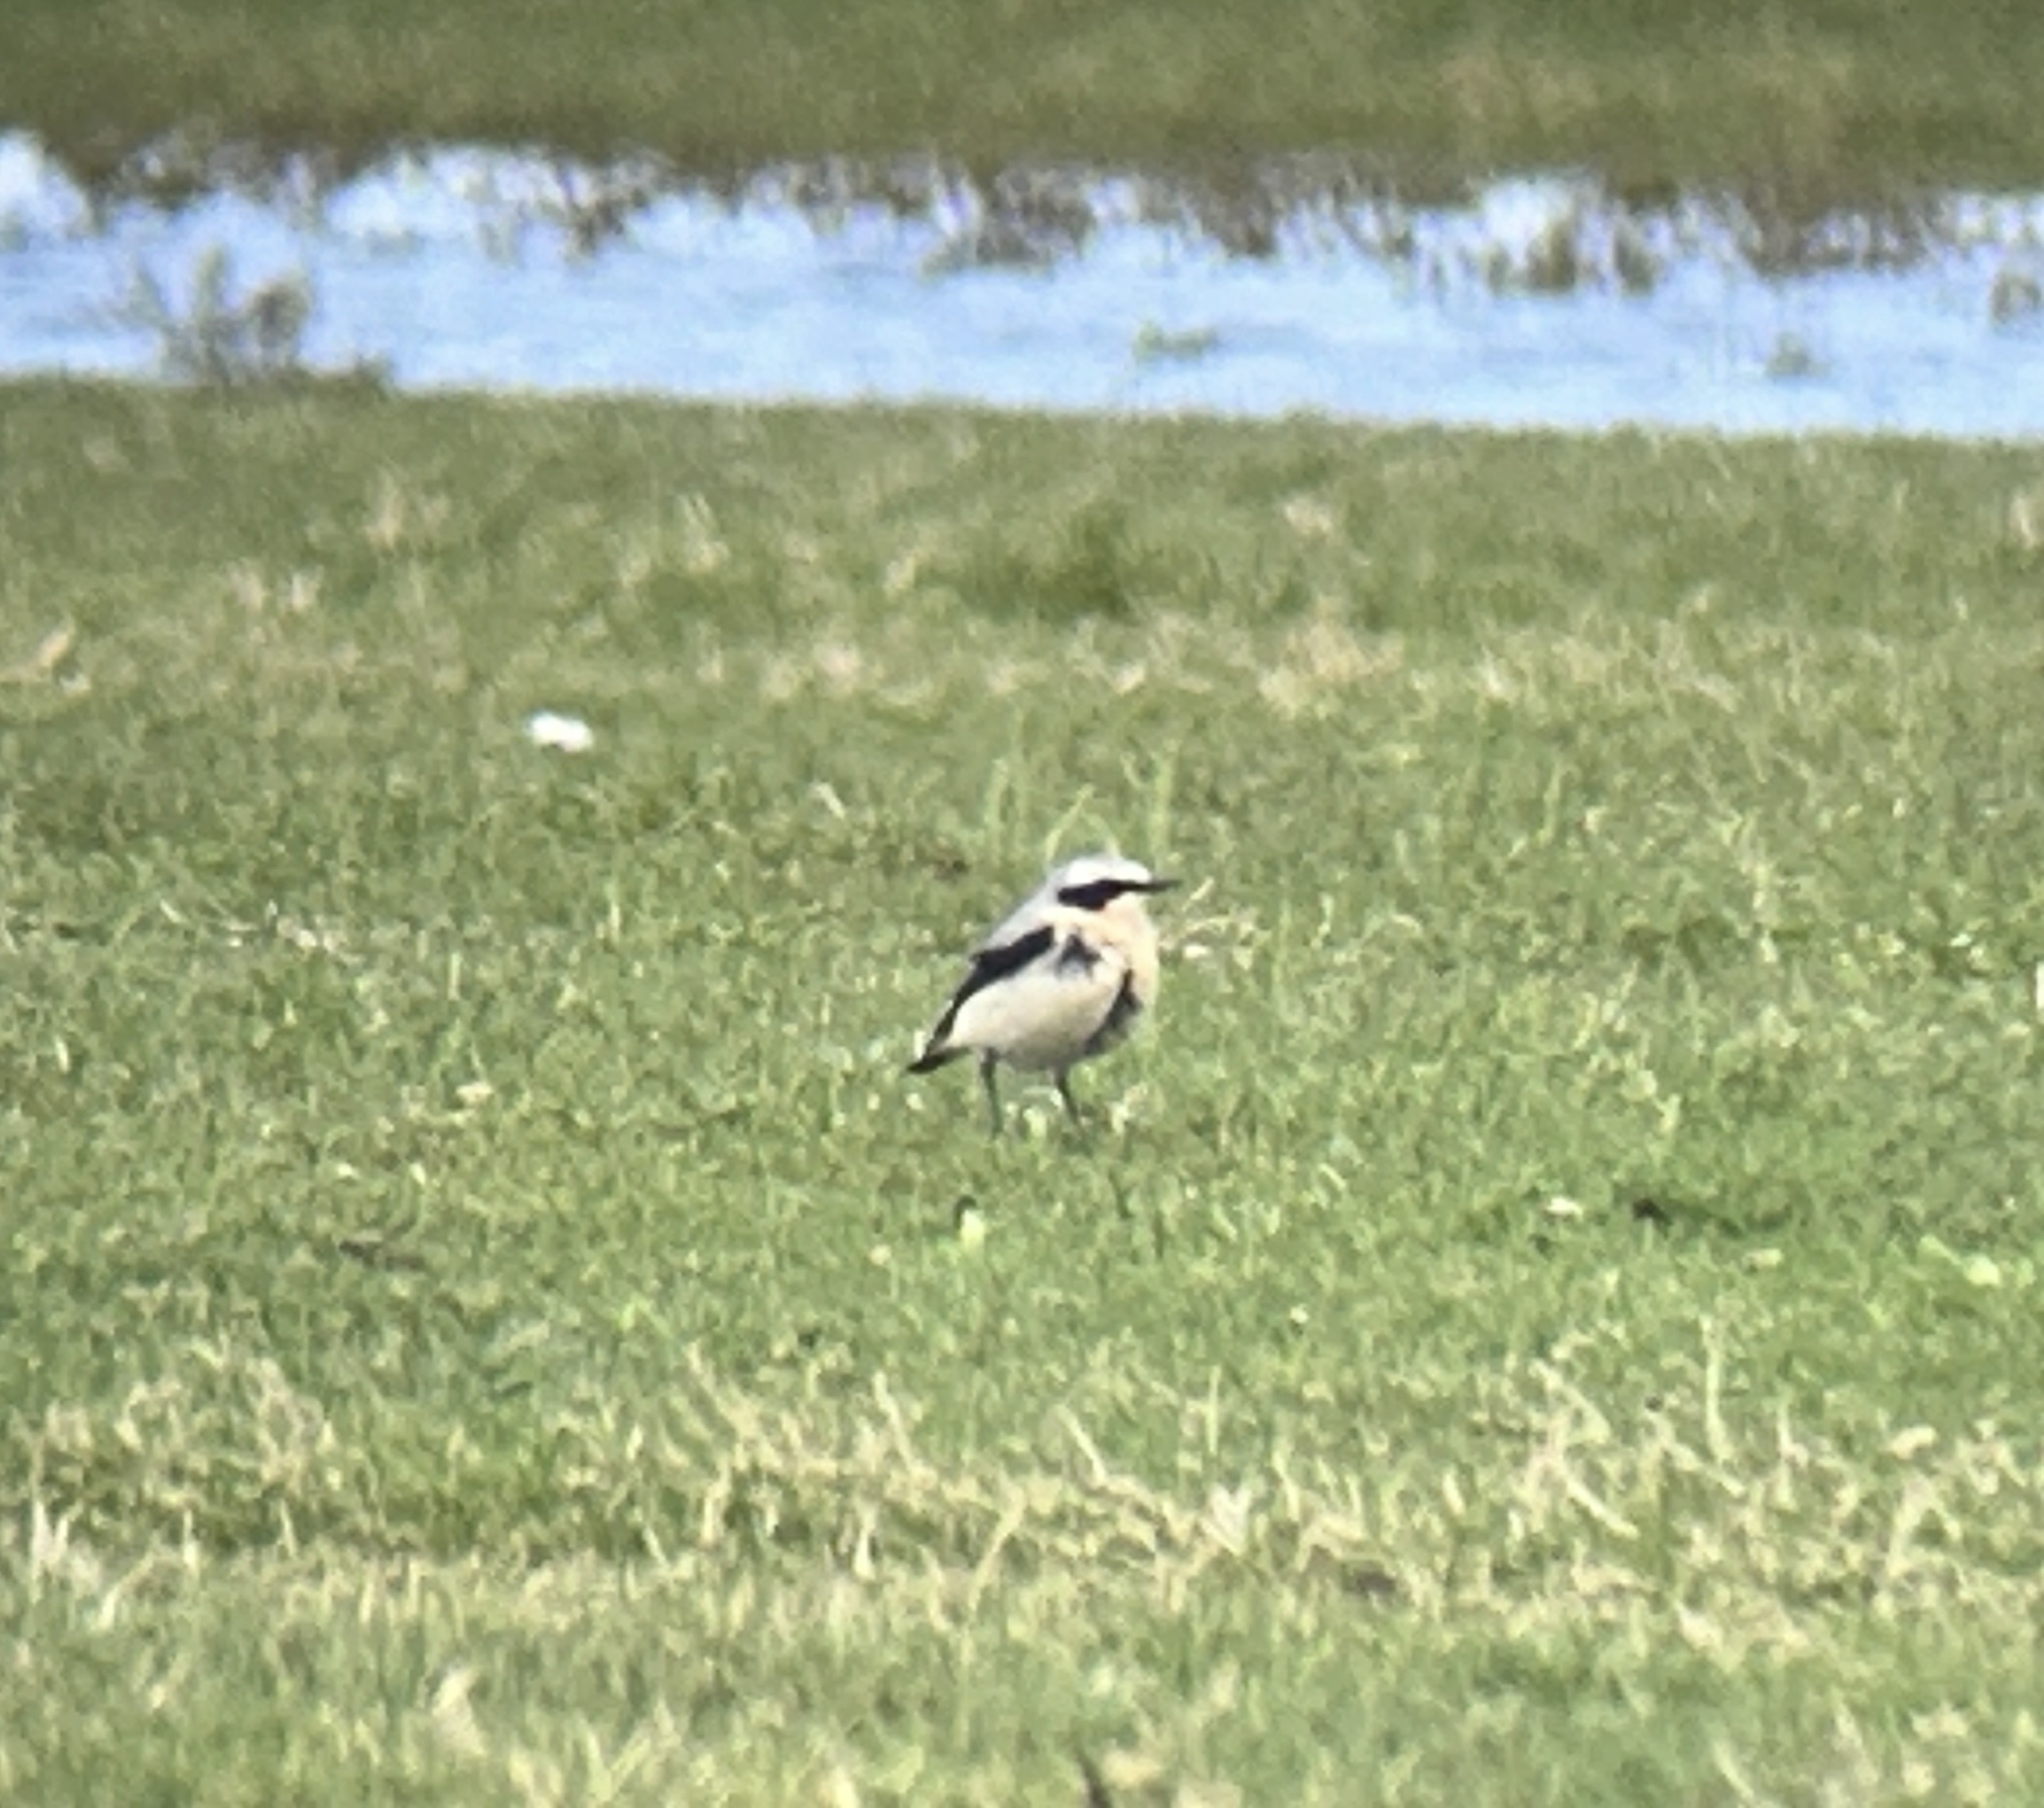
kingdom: Animalia
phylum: Chordata
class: Aves
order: Passeriformes
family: Muscicapidae
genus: Oenanthe
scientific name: Oenanthe oenanthe
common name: Northern wheatear
